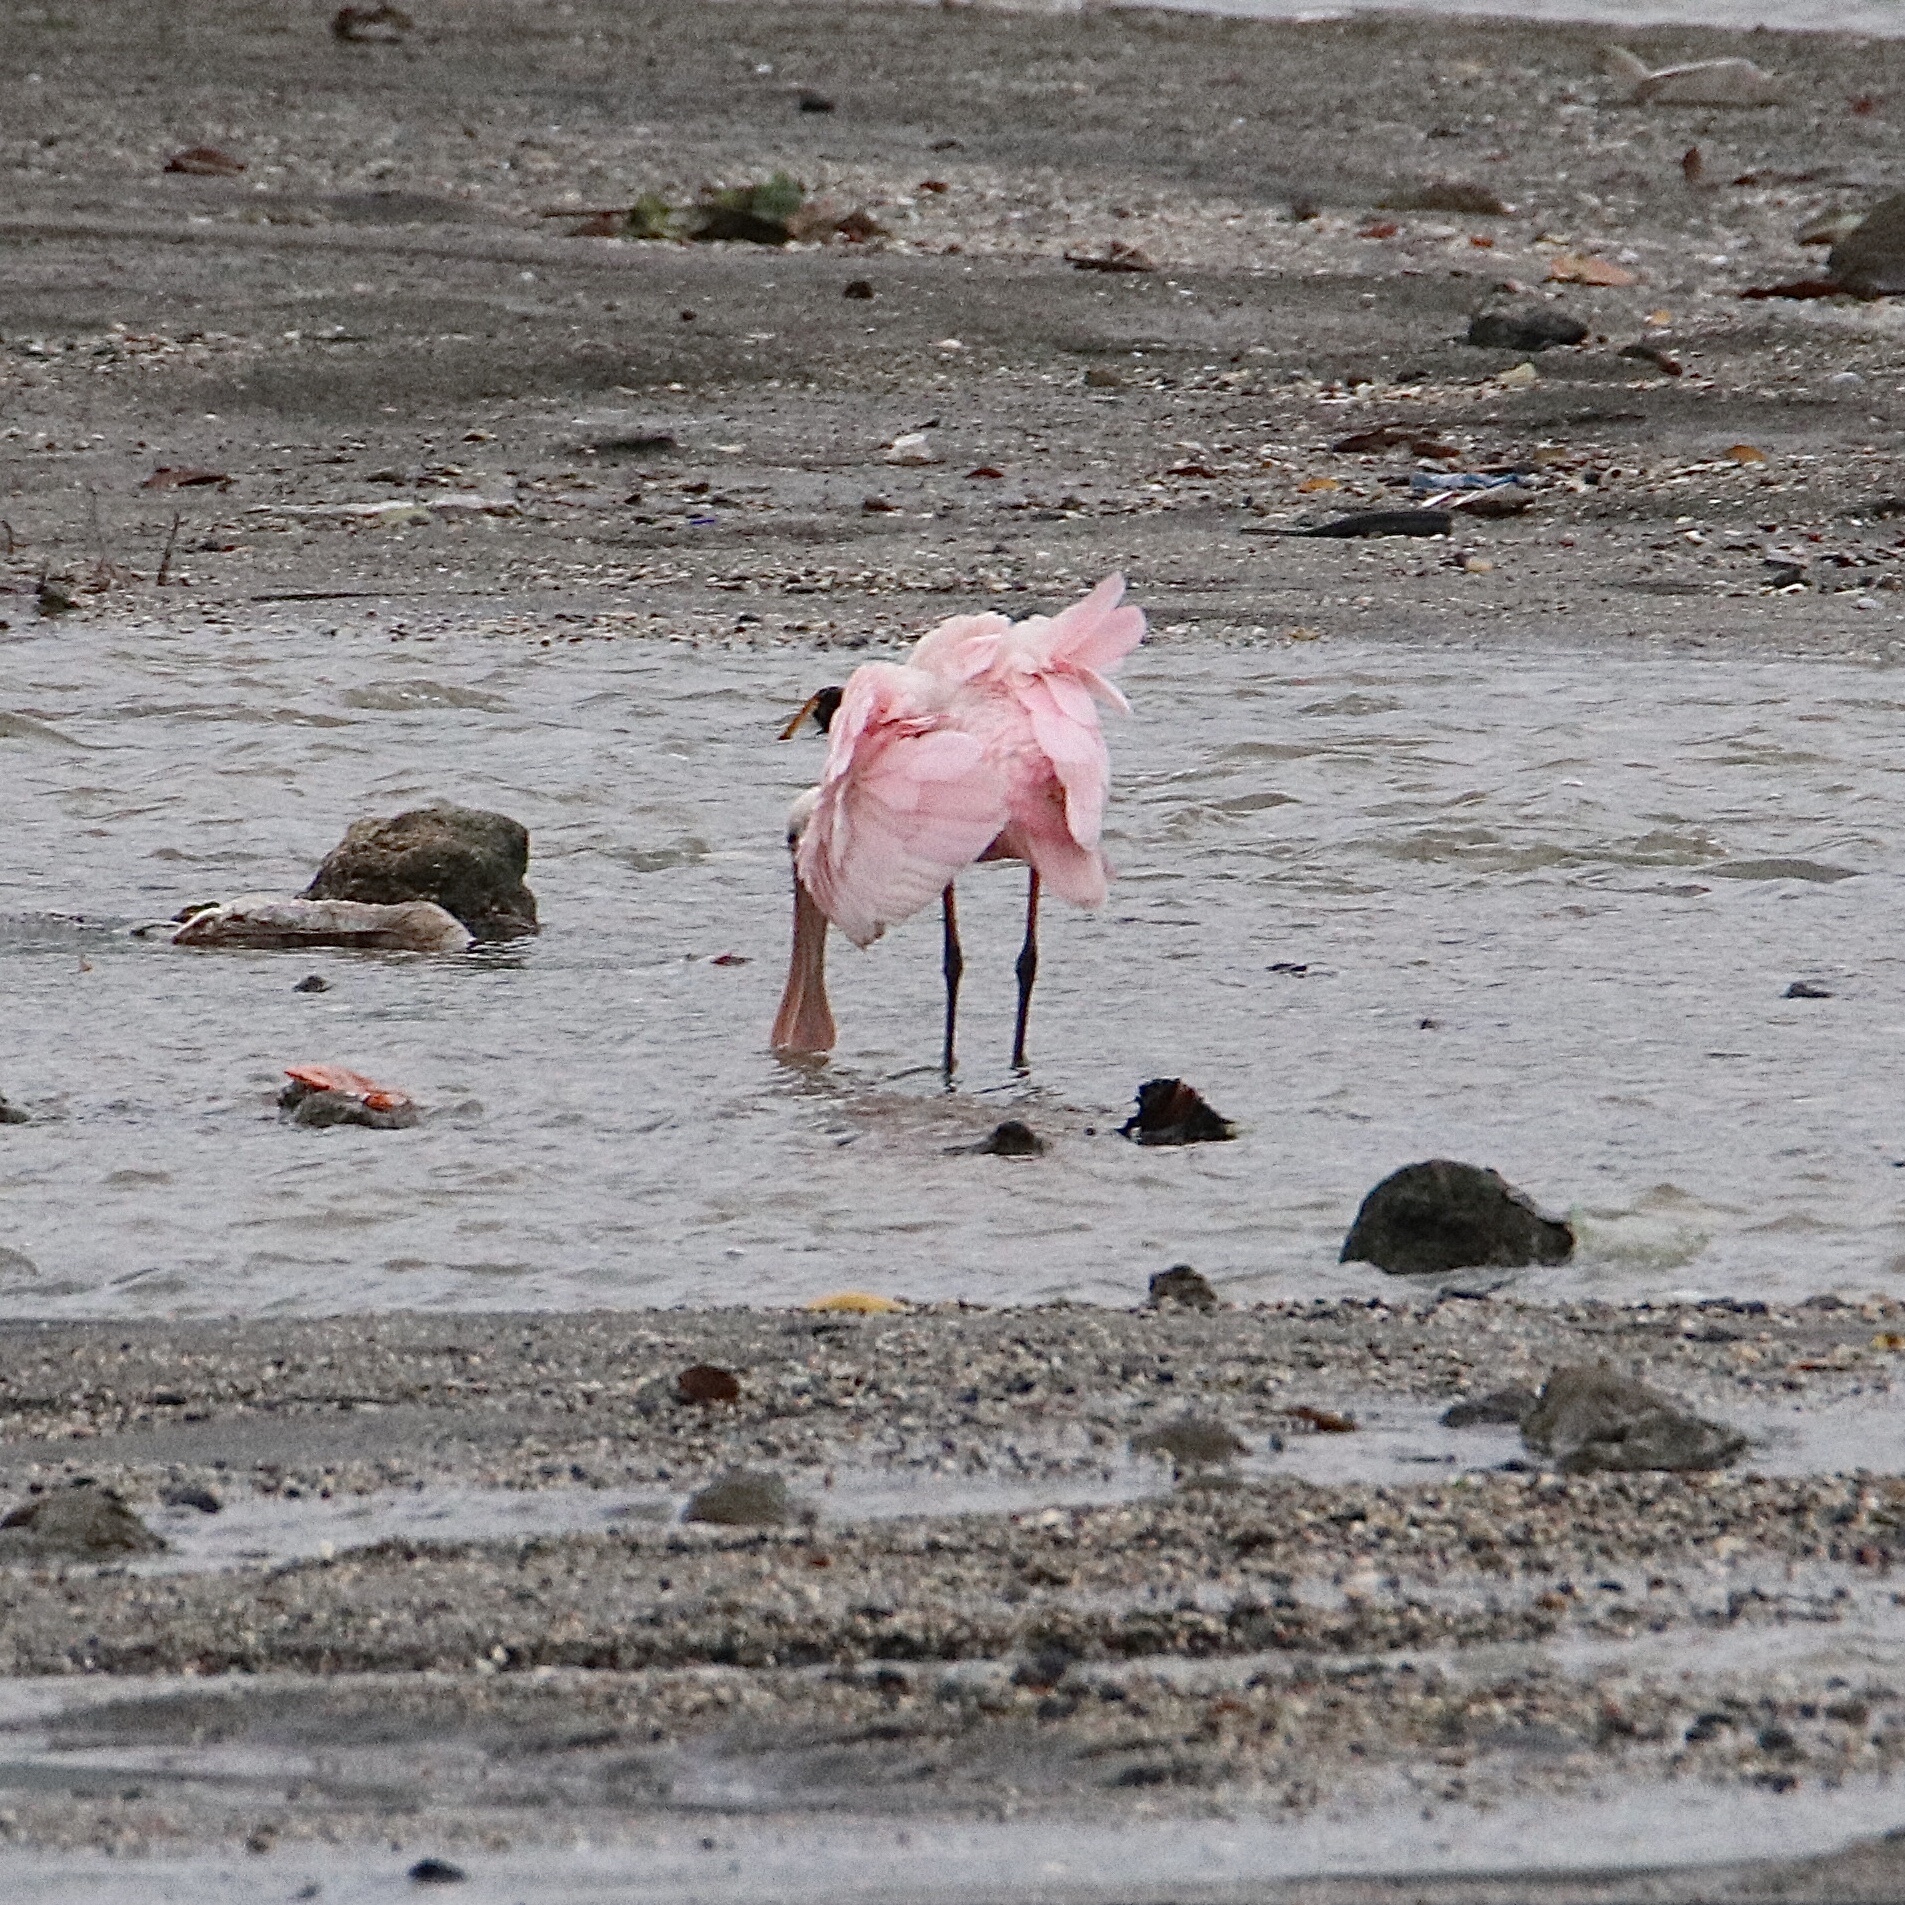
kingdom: Animalia
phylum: Chordata
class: Aves
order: Pelecaniformes
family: Threskiornithidae
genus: Platalea
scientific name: Platalea ajaja
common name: Roseate spoonbill
